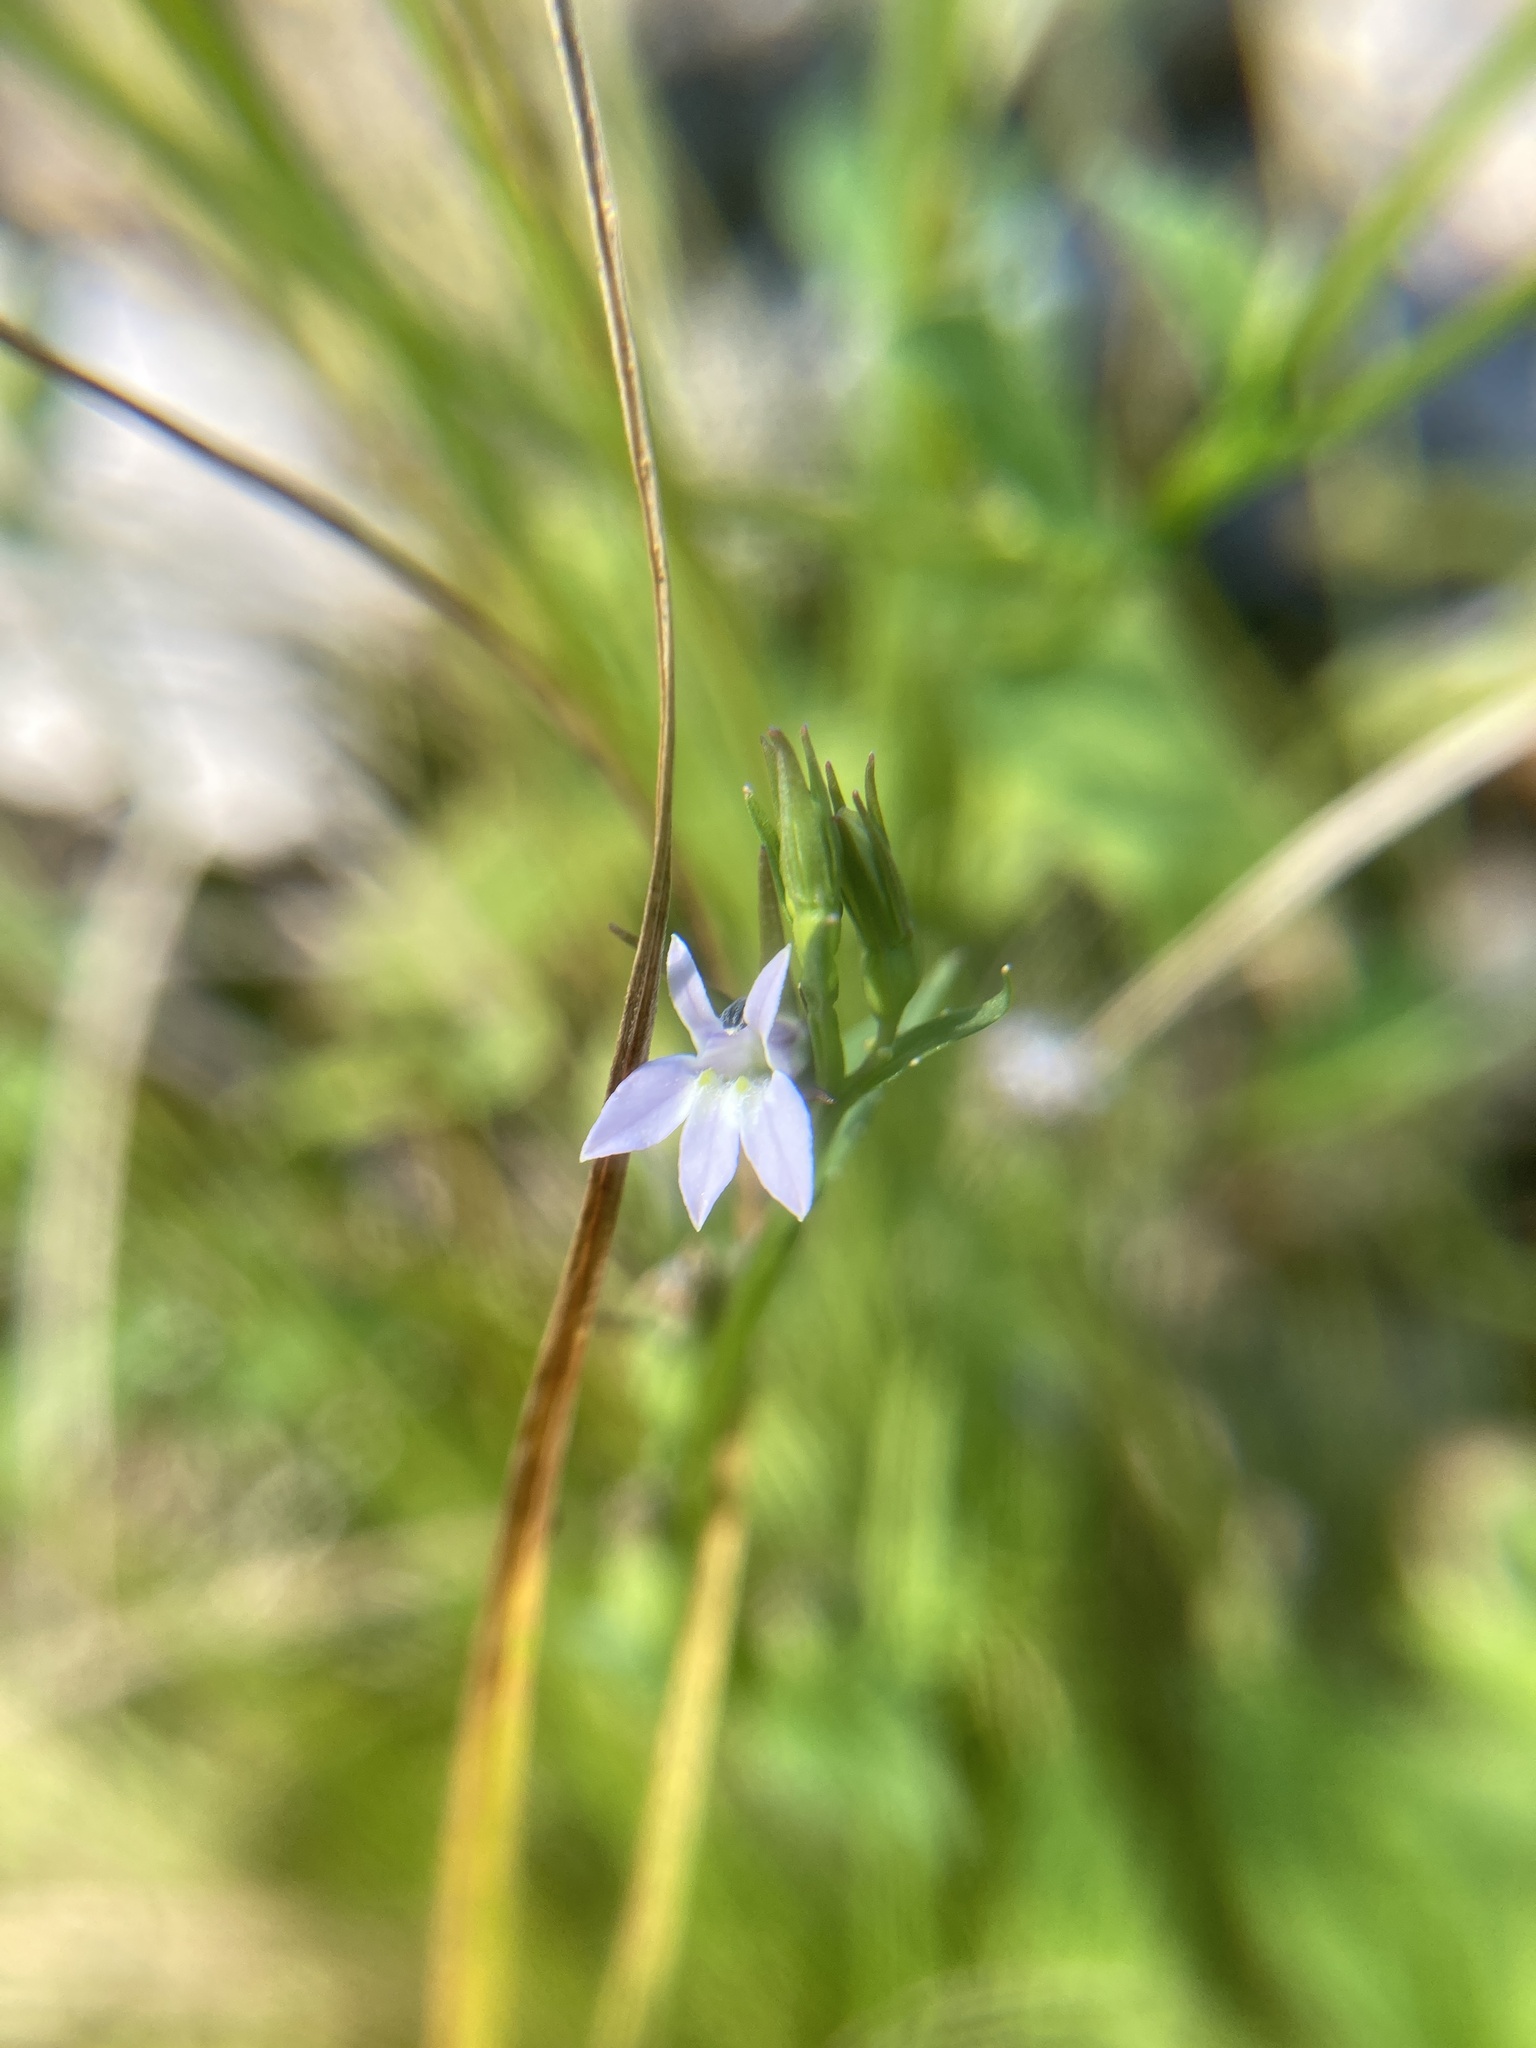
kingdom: Plantae
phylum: Tracheophyta
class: Magnoliopsida
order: Asterales
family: Campanulaceae
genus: Lobelia
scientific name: Lobelia inflata
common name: Indian tobacco
